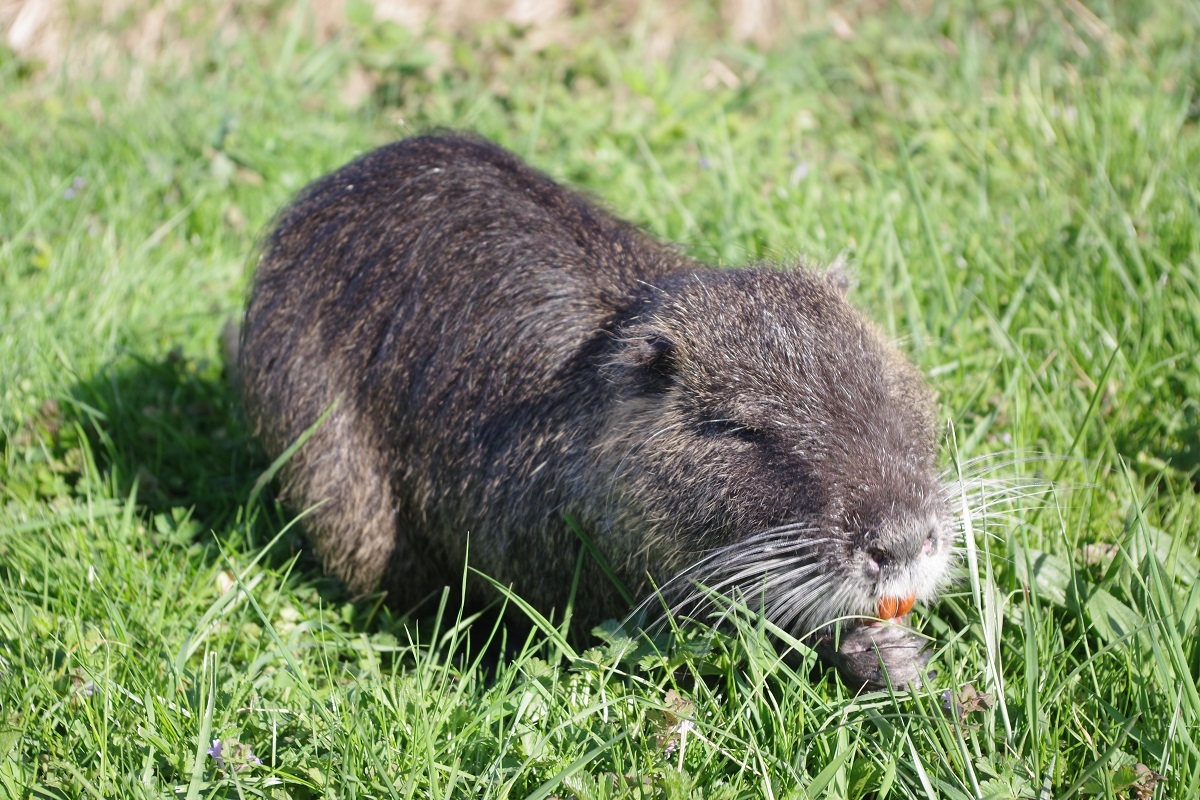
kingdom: Animalia
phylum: Chordata
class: Mammalia
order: Rodentia
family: Myocastoridae
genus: Myocastor
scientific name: Myocastor coypus
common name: Coypu
